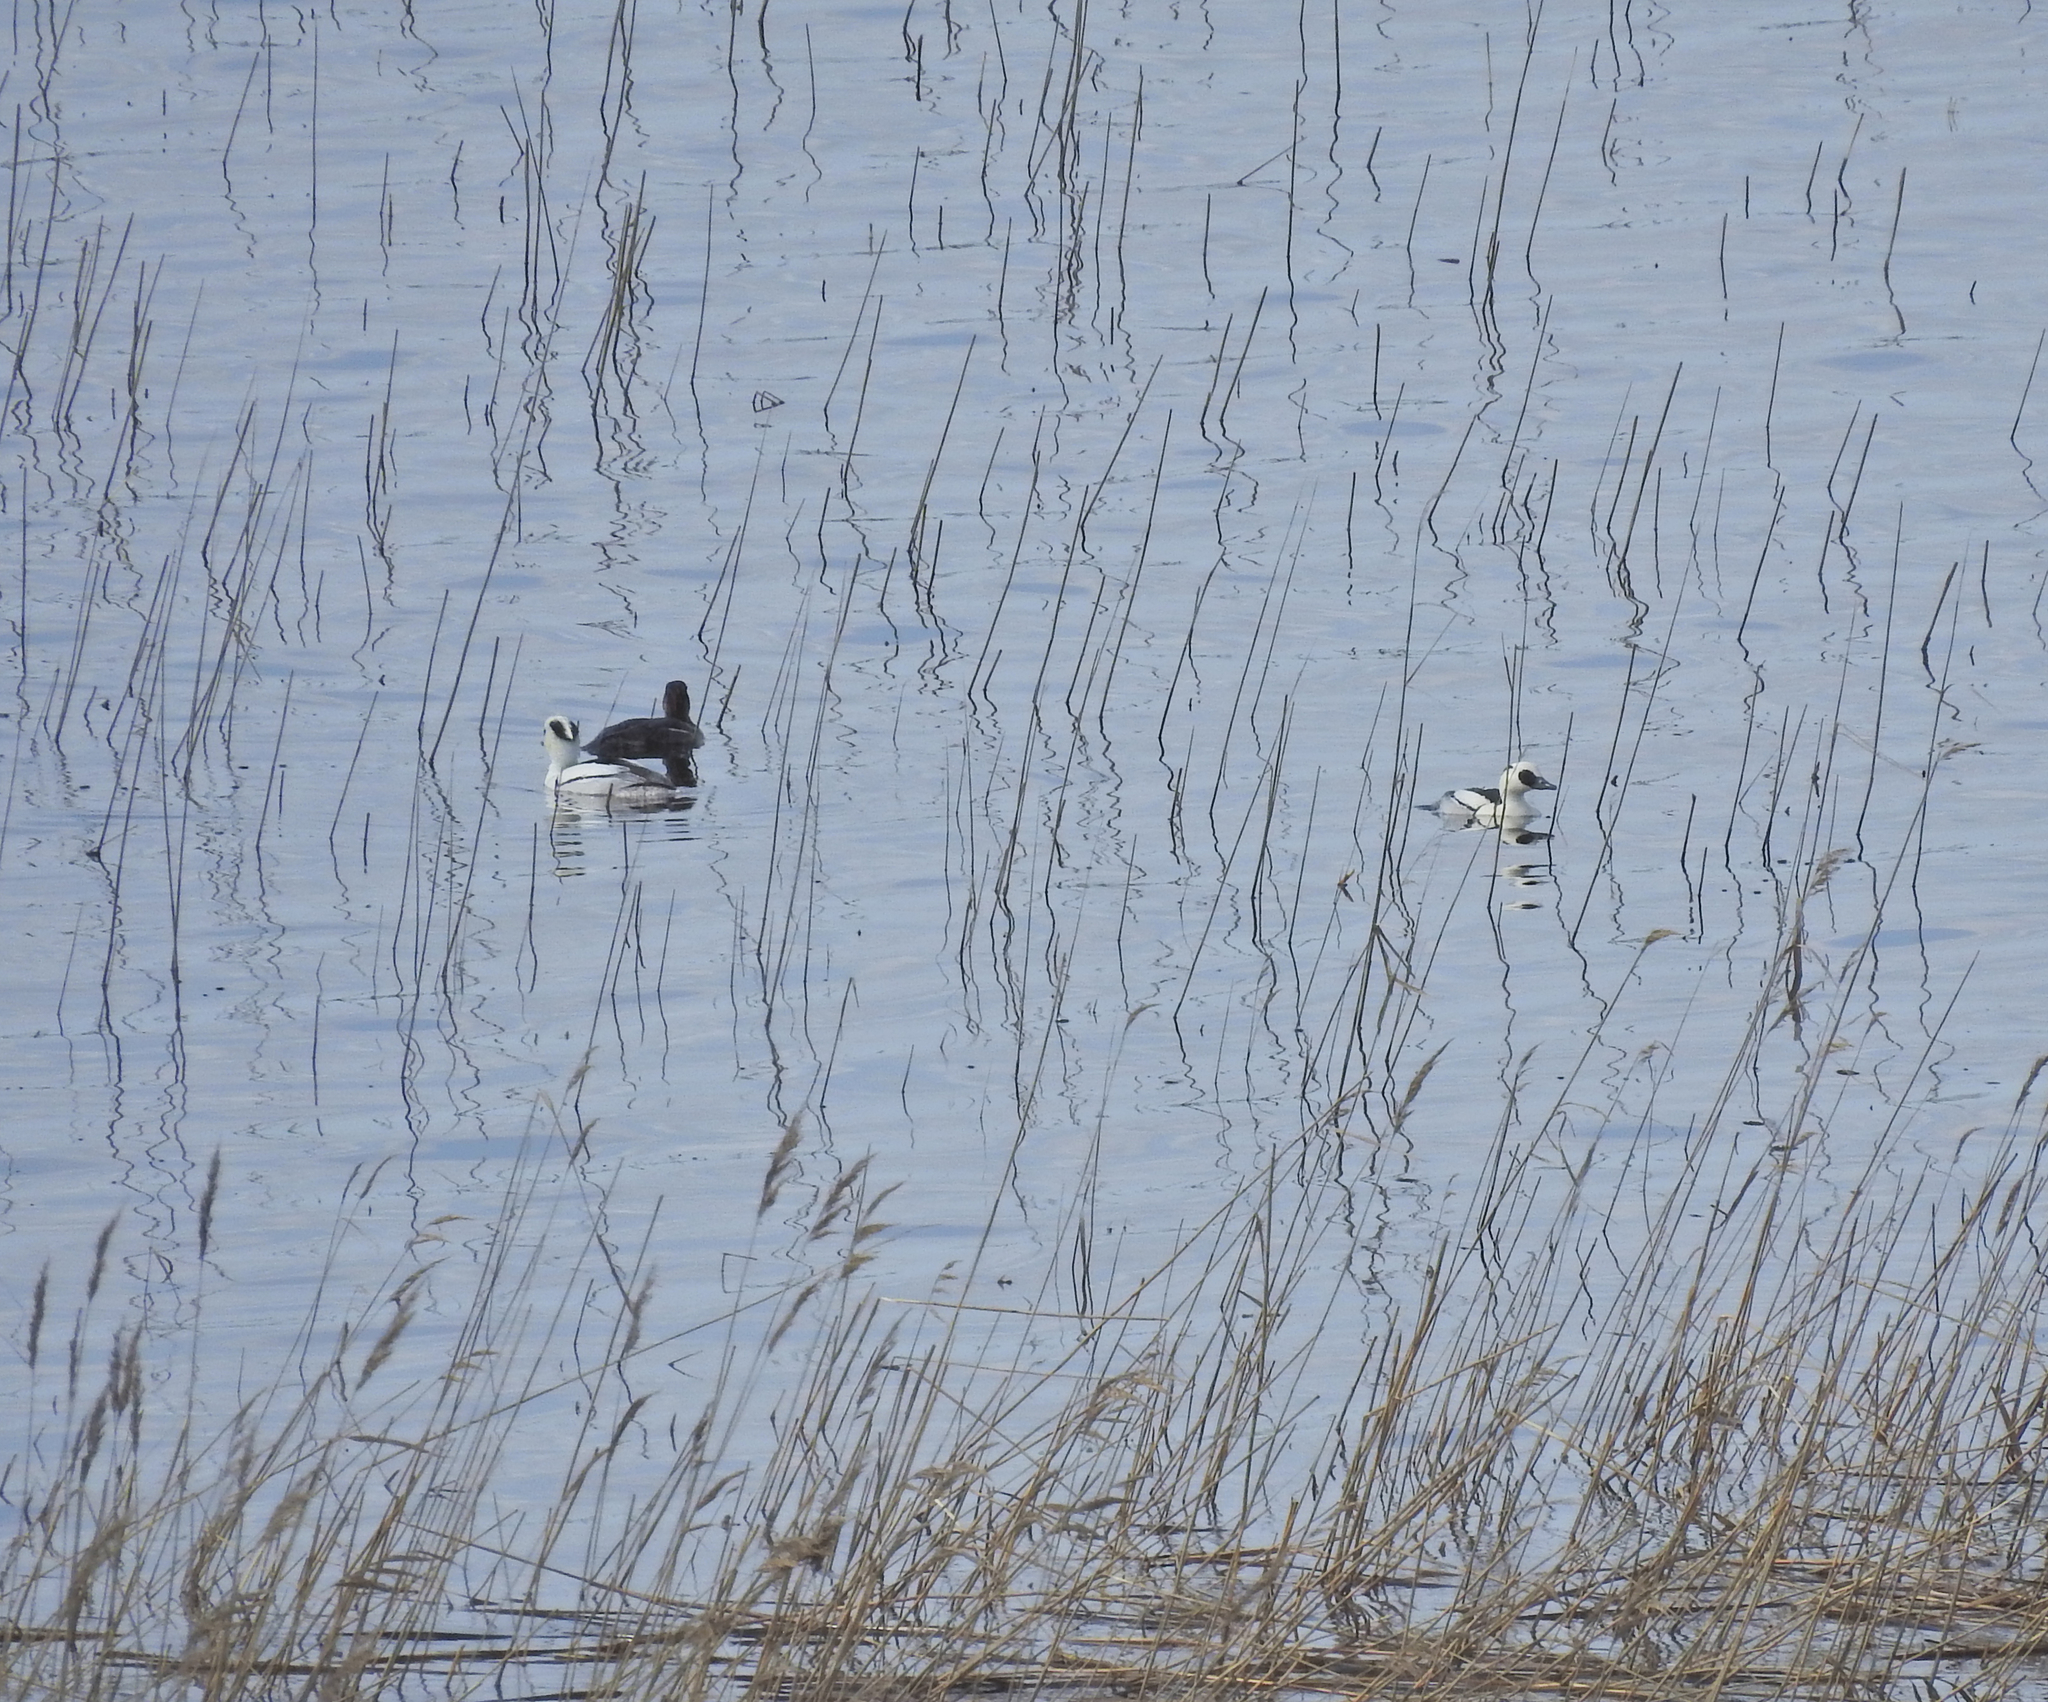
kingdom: Animalia
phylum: Chordata
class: Aves
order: Anseriformes
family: Anatidae
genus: Mergellus
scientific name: Mergellus albellus
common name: Smew
